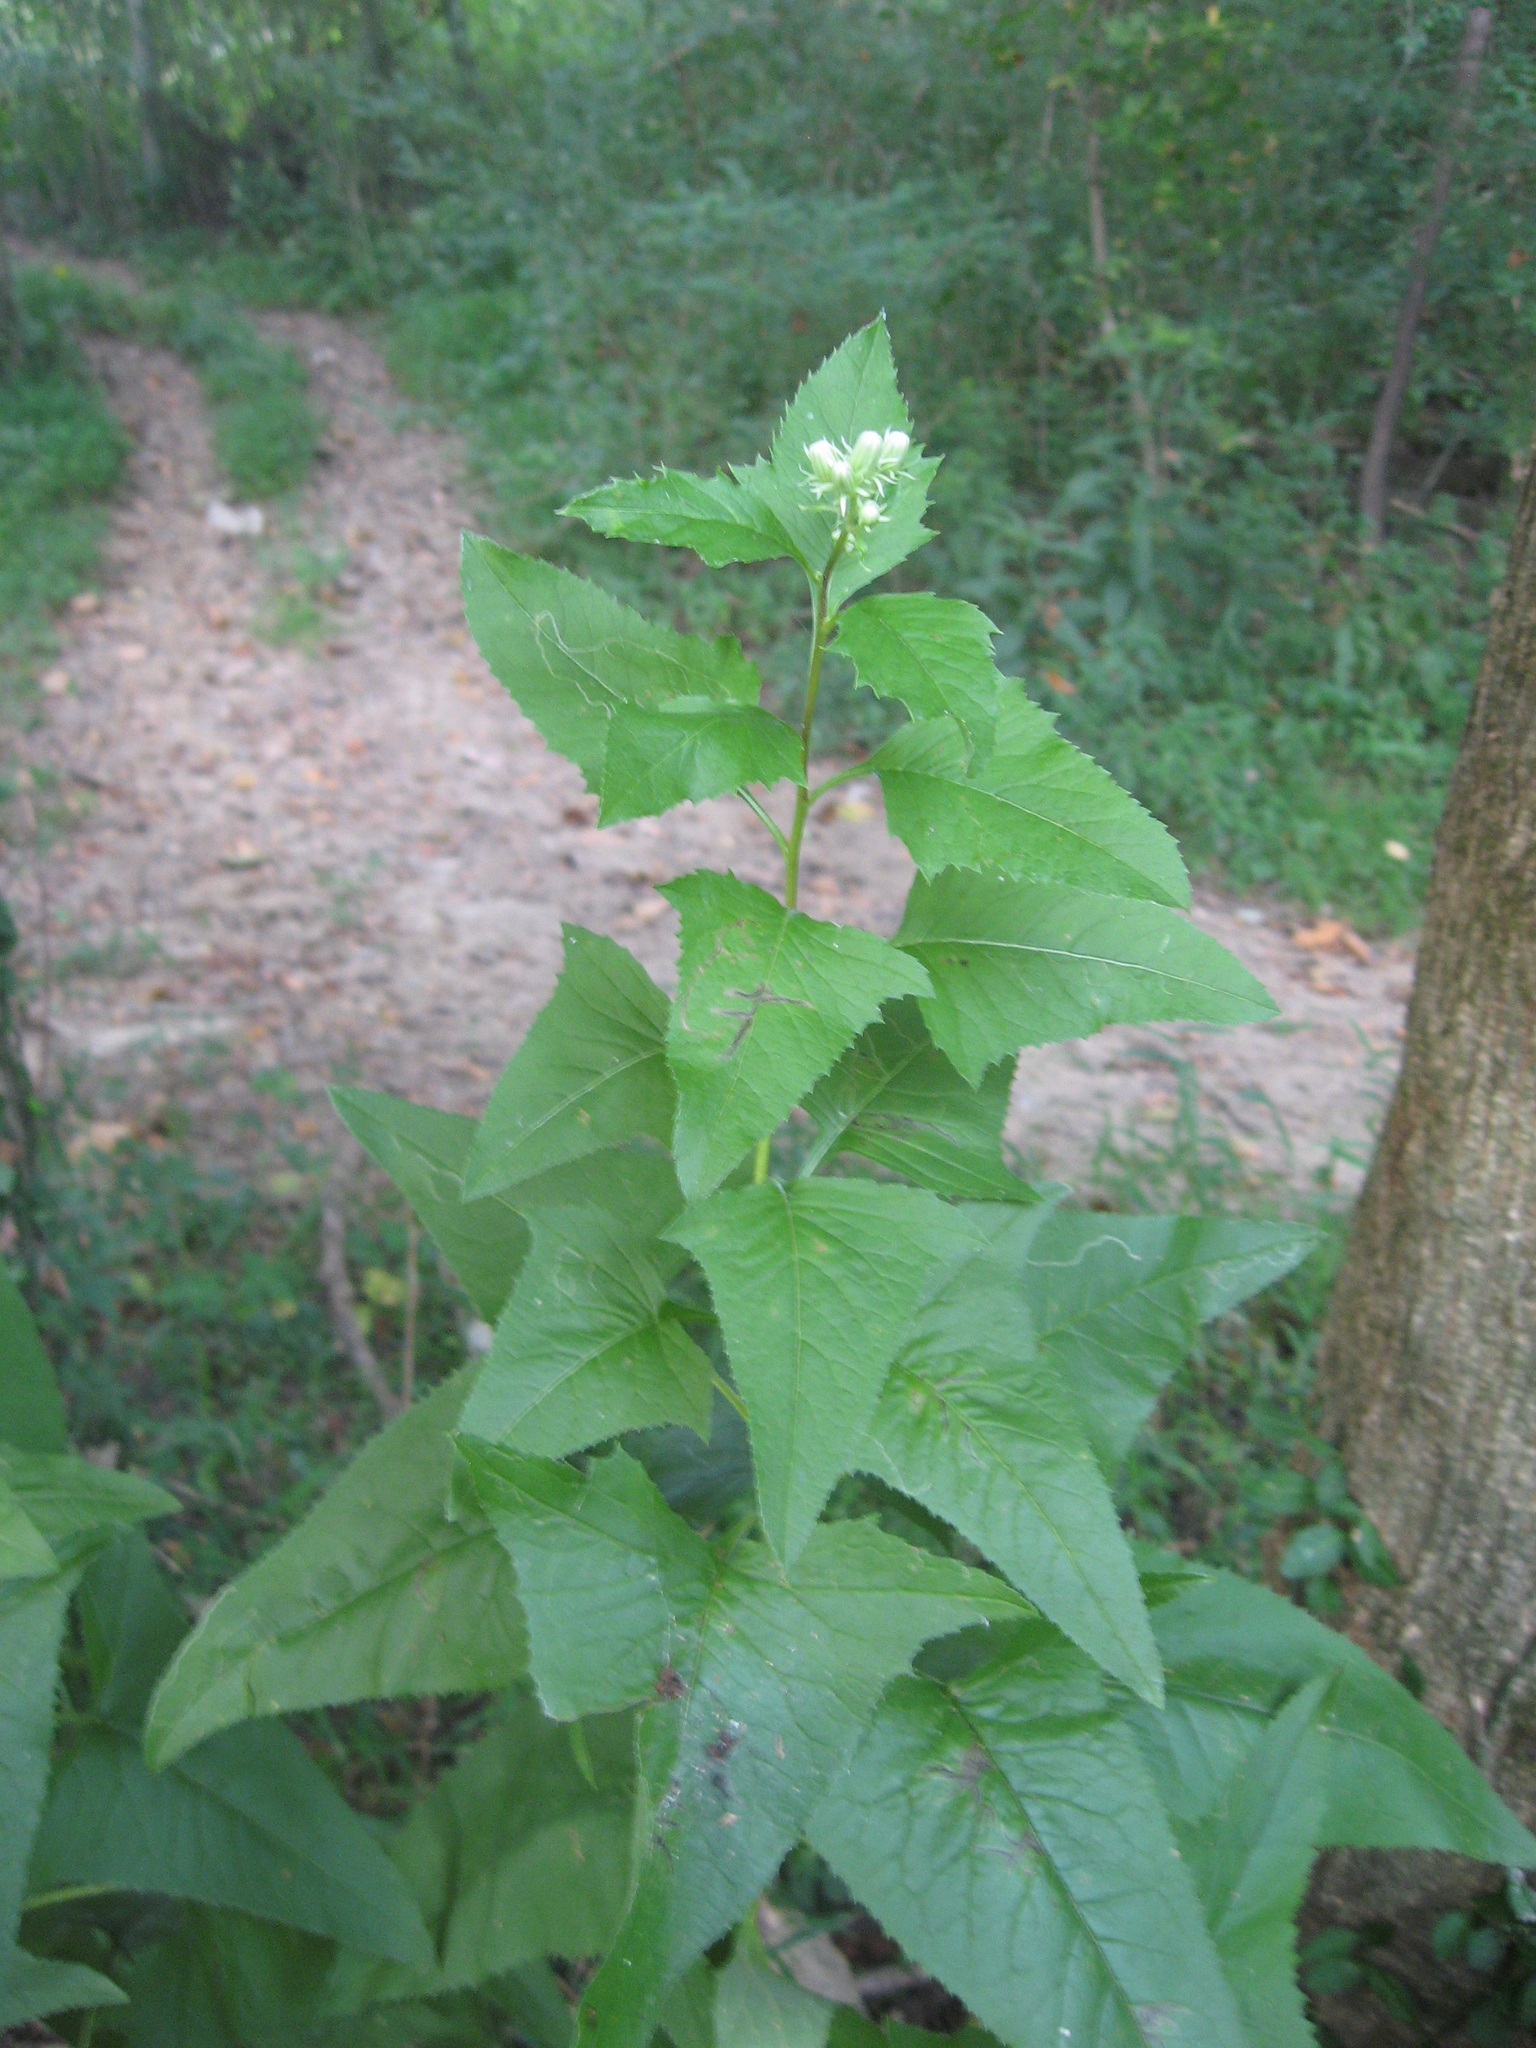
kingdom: Plantae
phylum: Tracheophyta
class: Magnoliopsida
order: Asterales
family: Asteraceae
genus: Hasteola
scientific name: Hasteola suaveolens
